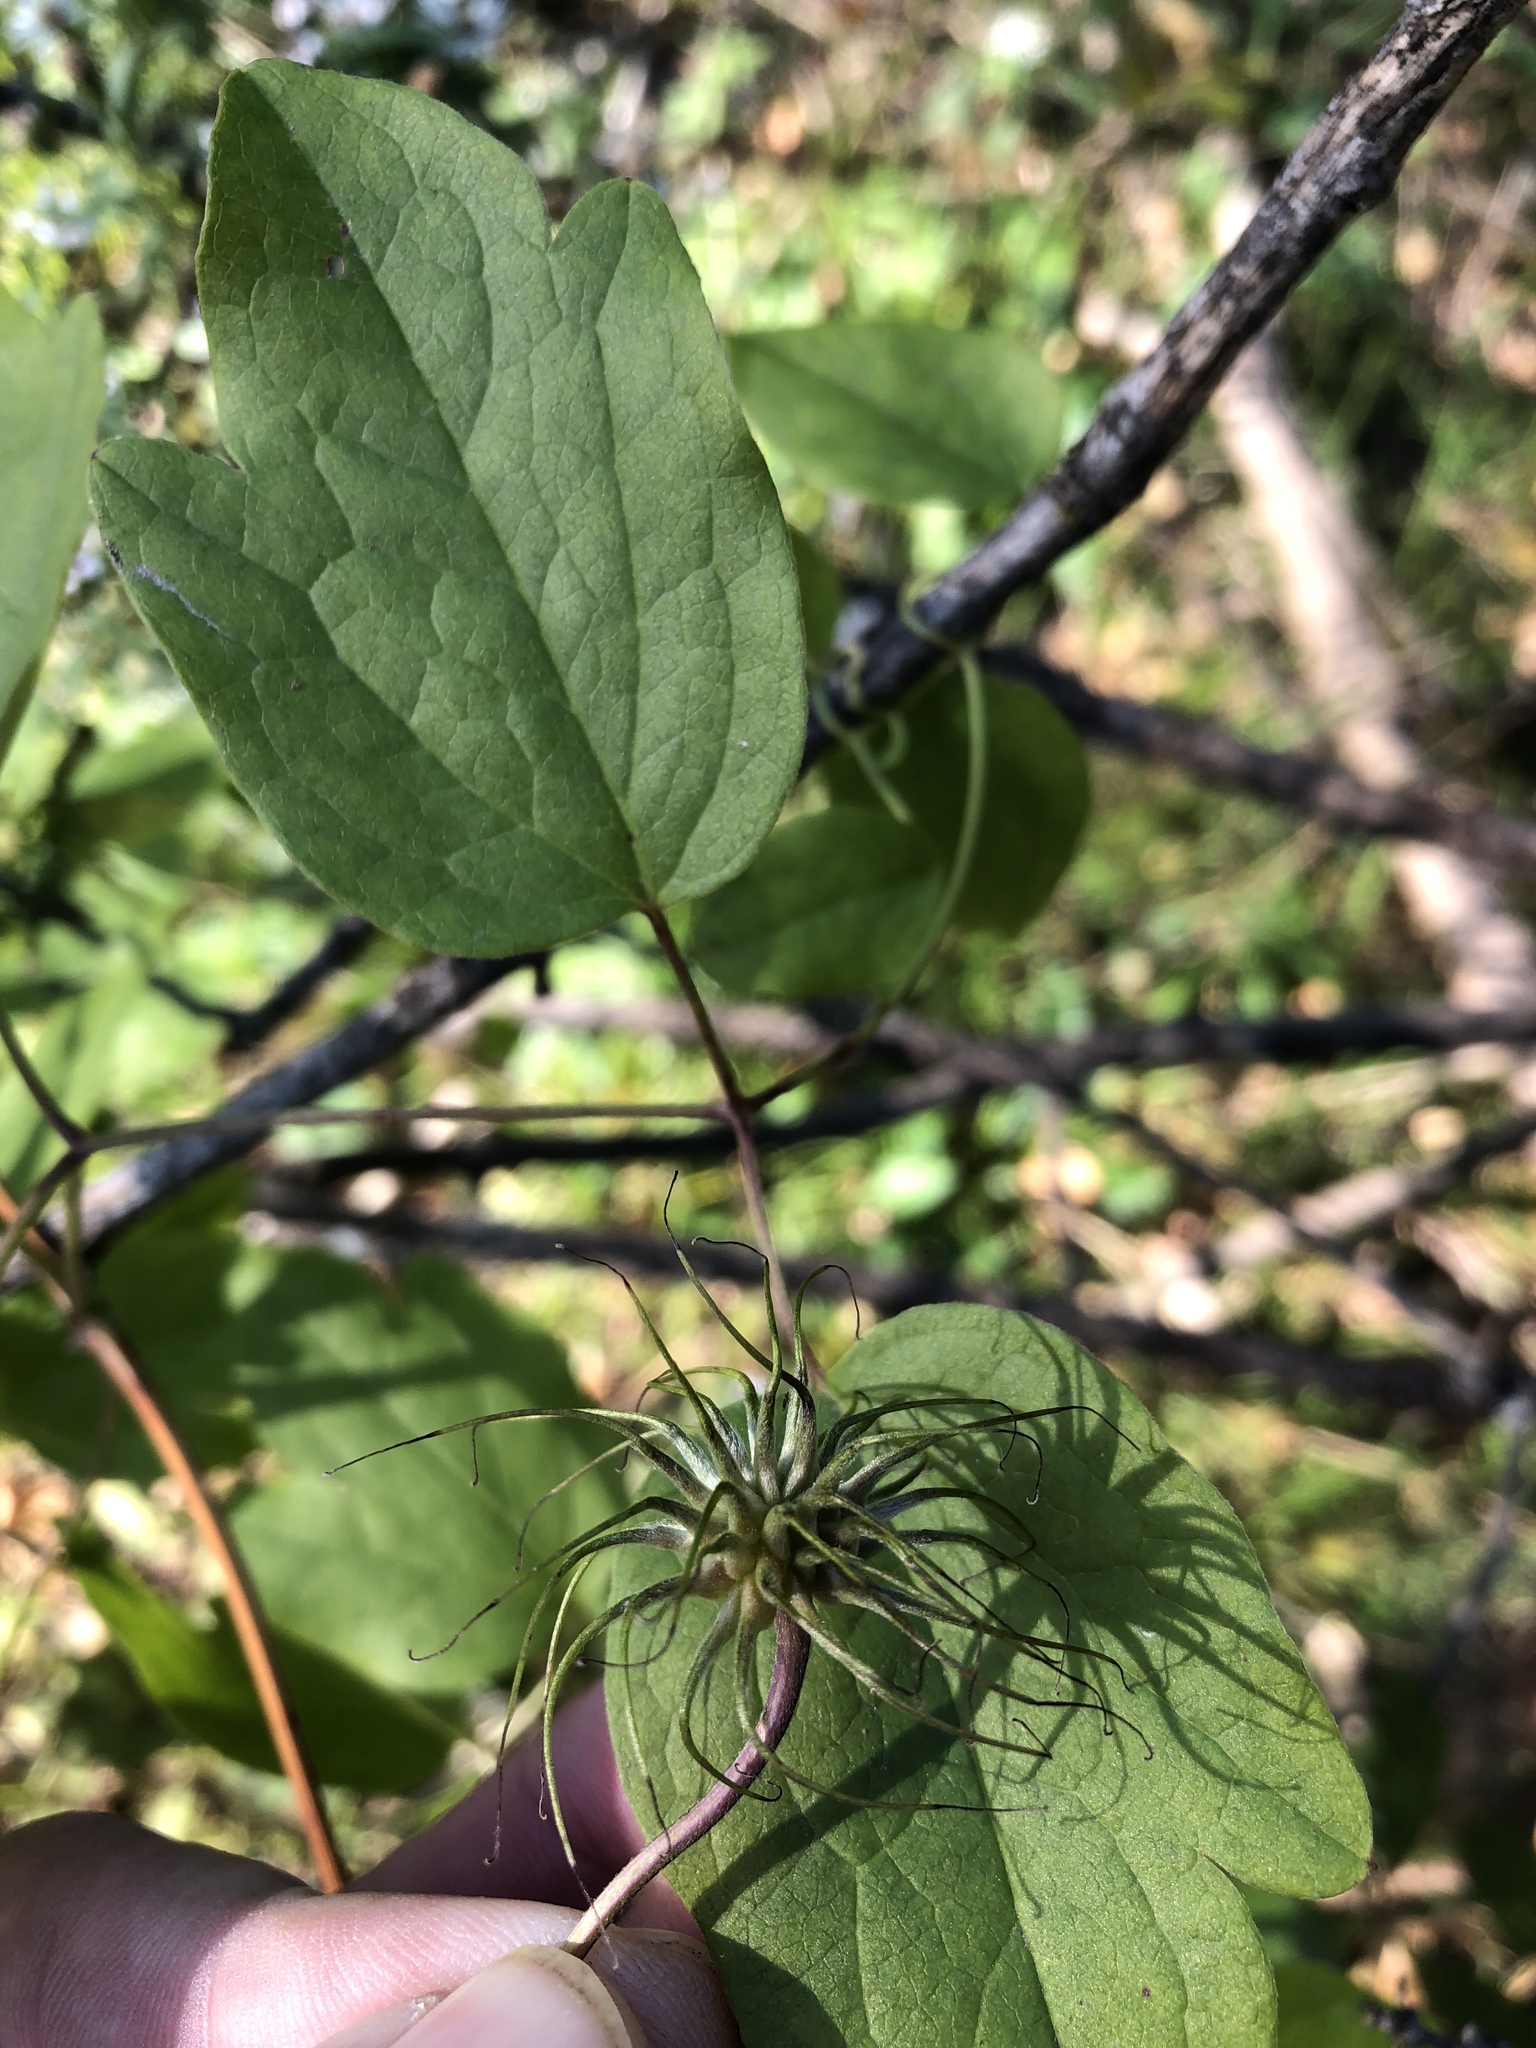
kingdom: Plantae
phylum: Tracheophyta
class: Magnoliopsida
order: Ranunculales
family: Ranunculaceae
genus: Clematis
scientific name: Clematis pitcheri
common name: Bellflower clematis
